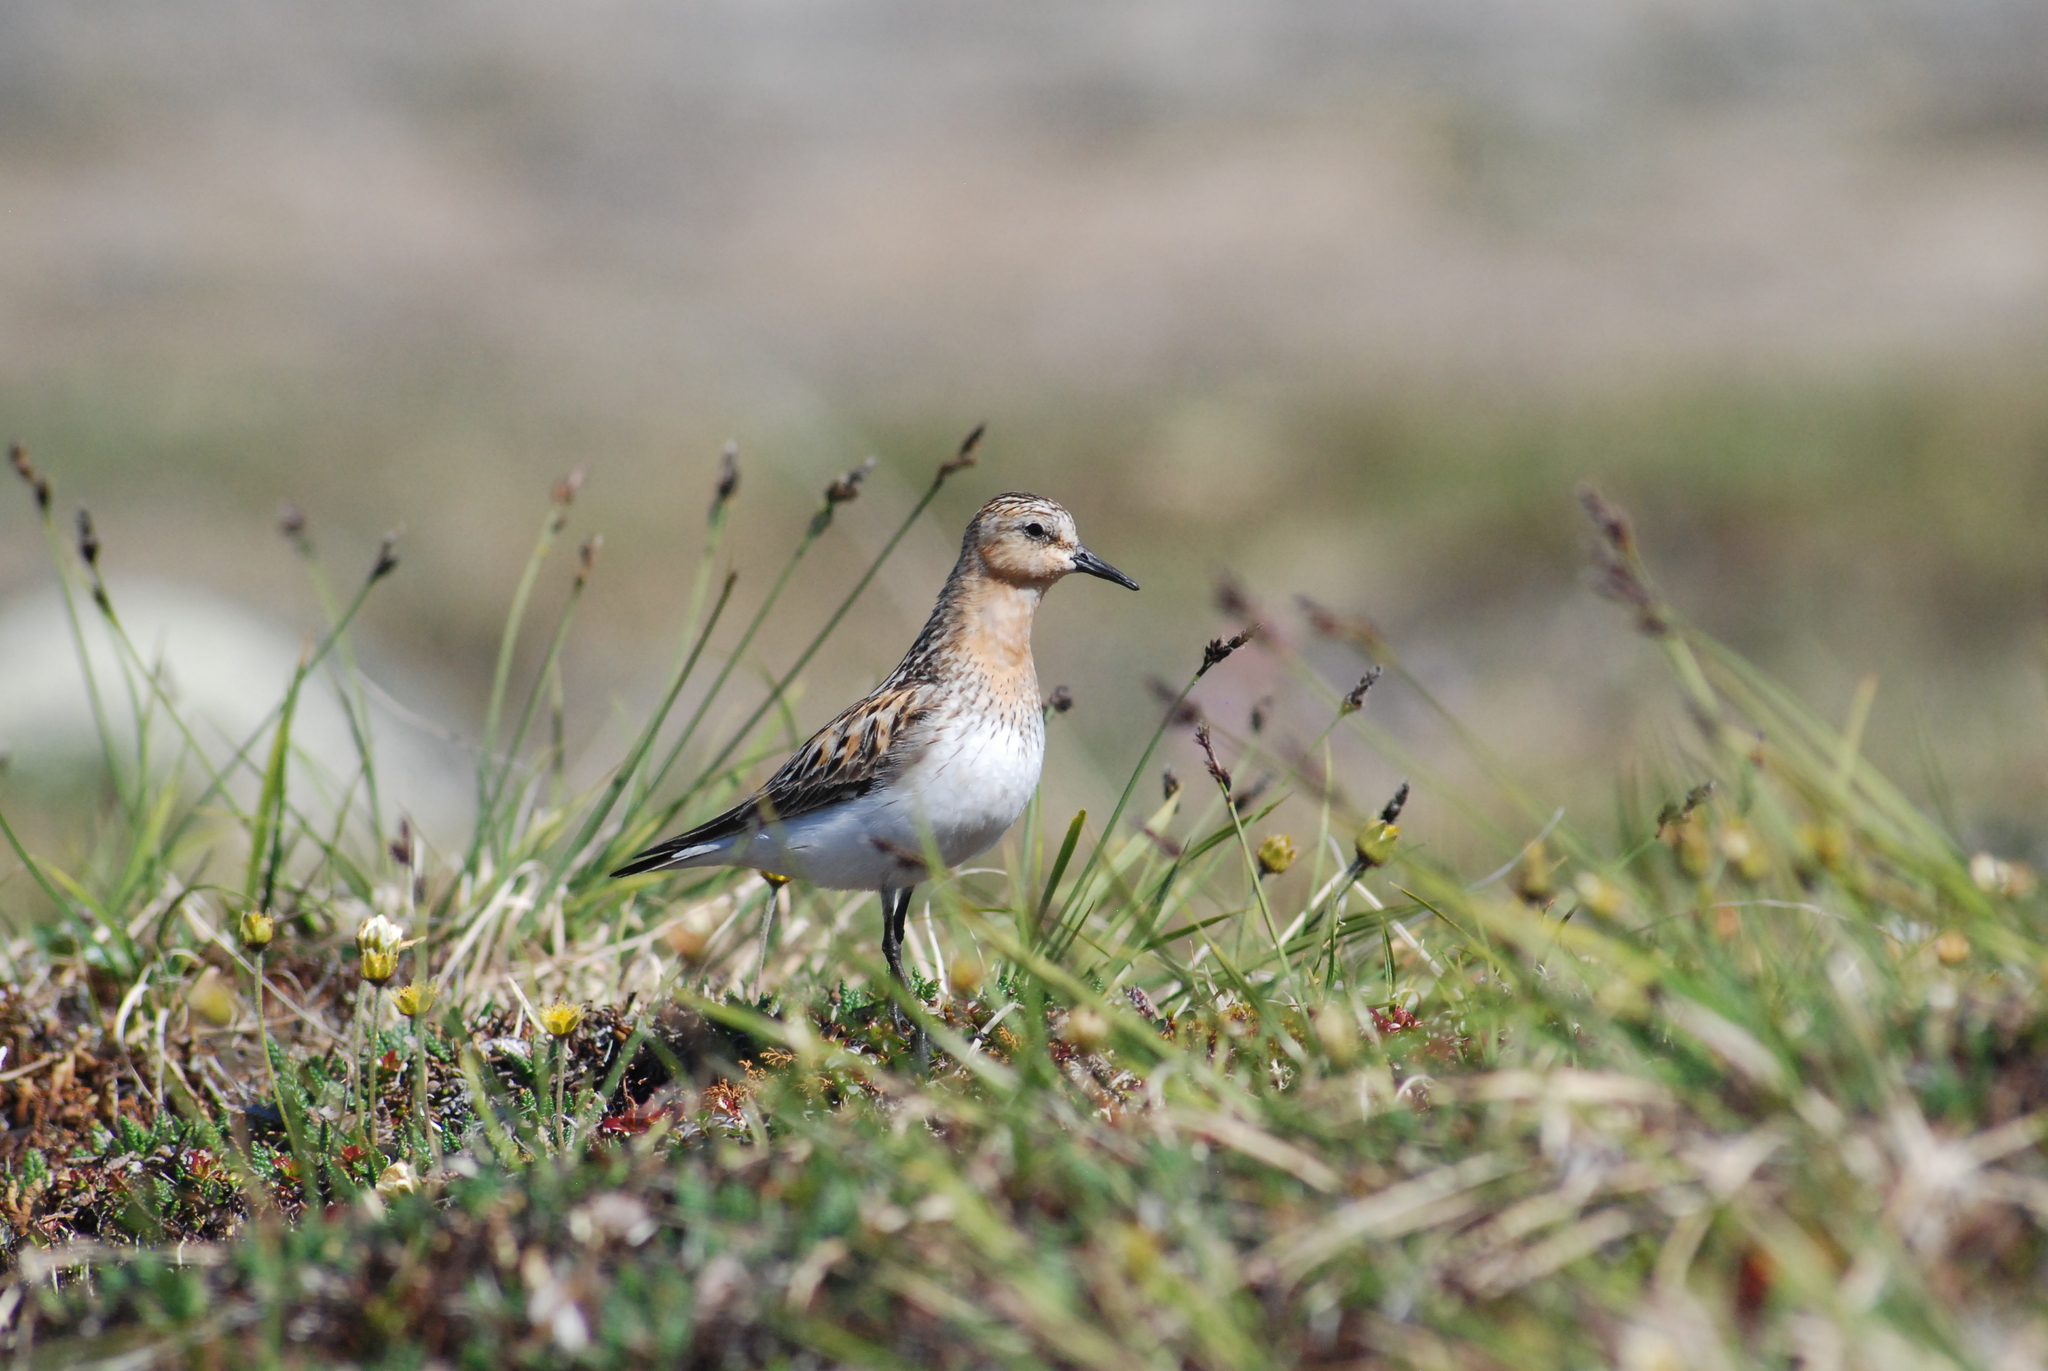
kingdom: Animalia
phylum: Chordata
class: Aves
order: Charadriiformes
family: Scolopacidae
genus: Calidris
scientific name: Calidris ruficollis
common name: Red-necked stint
